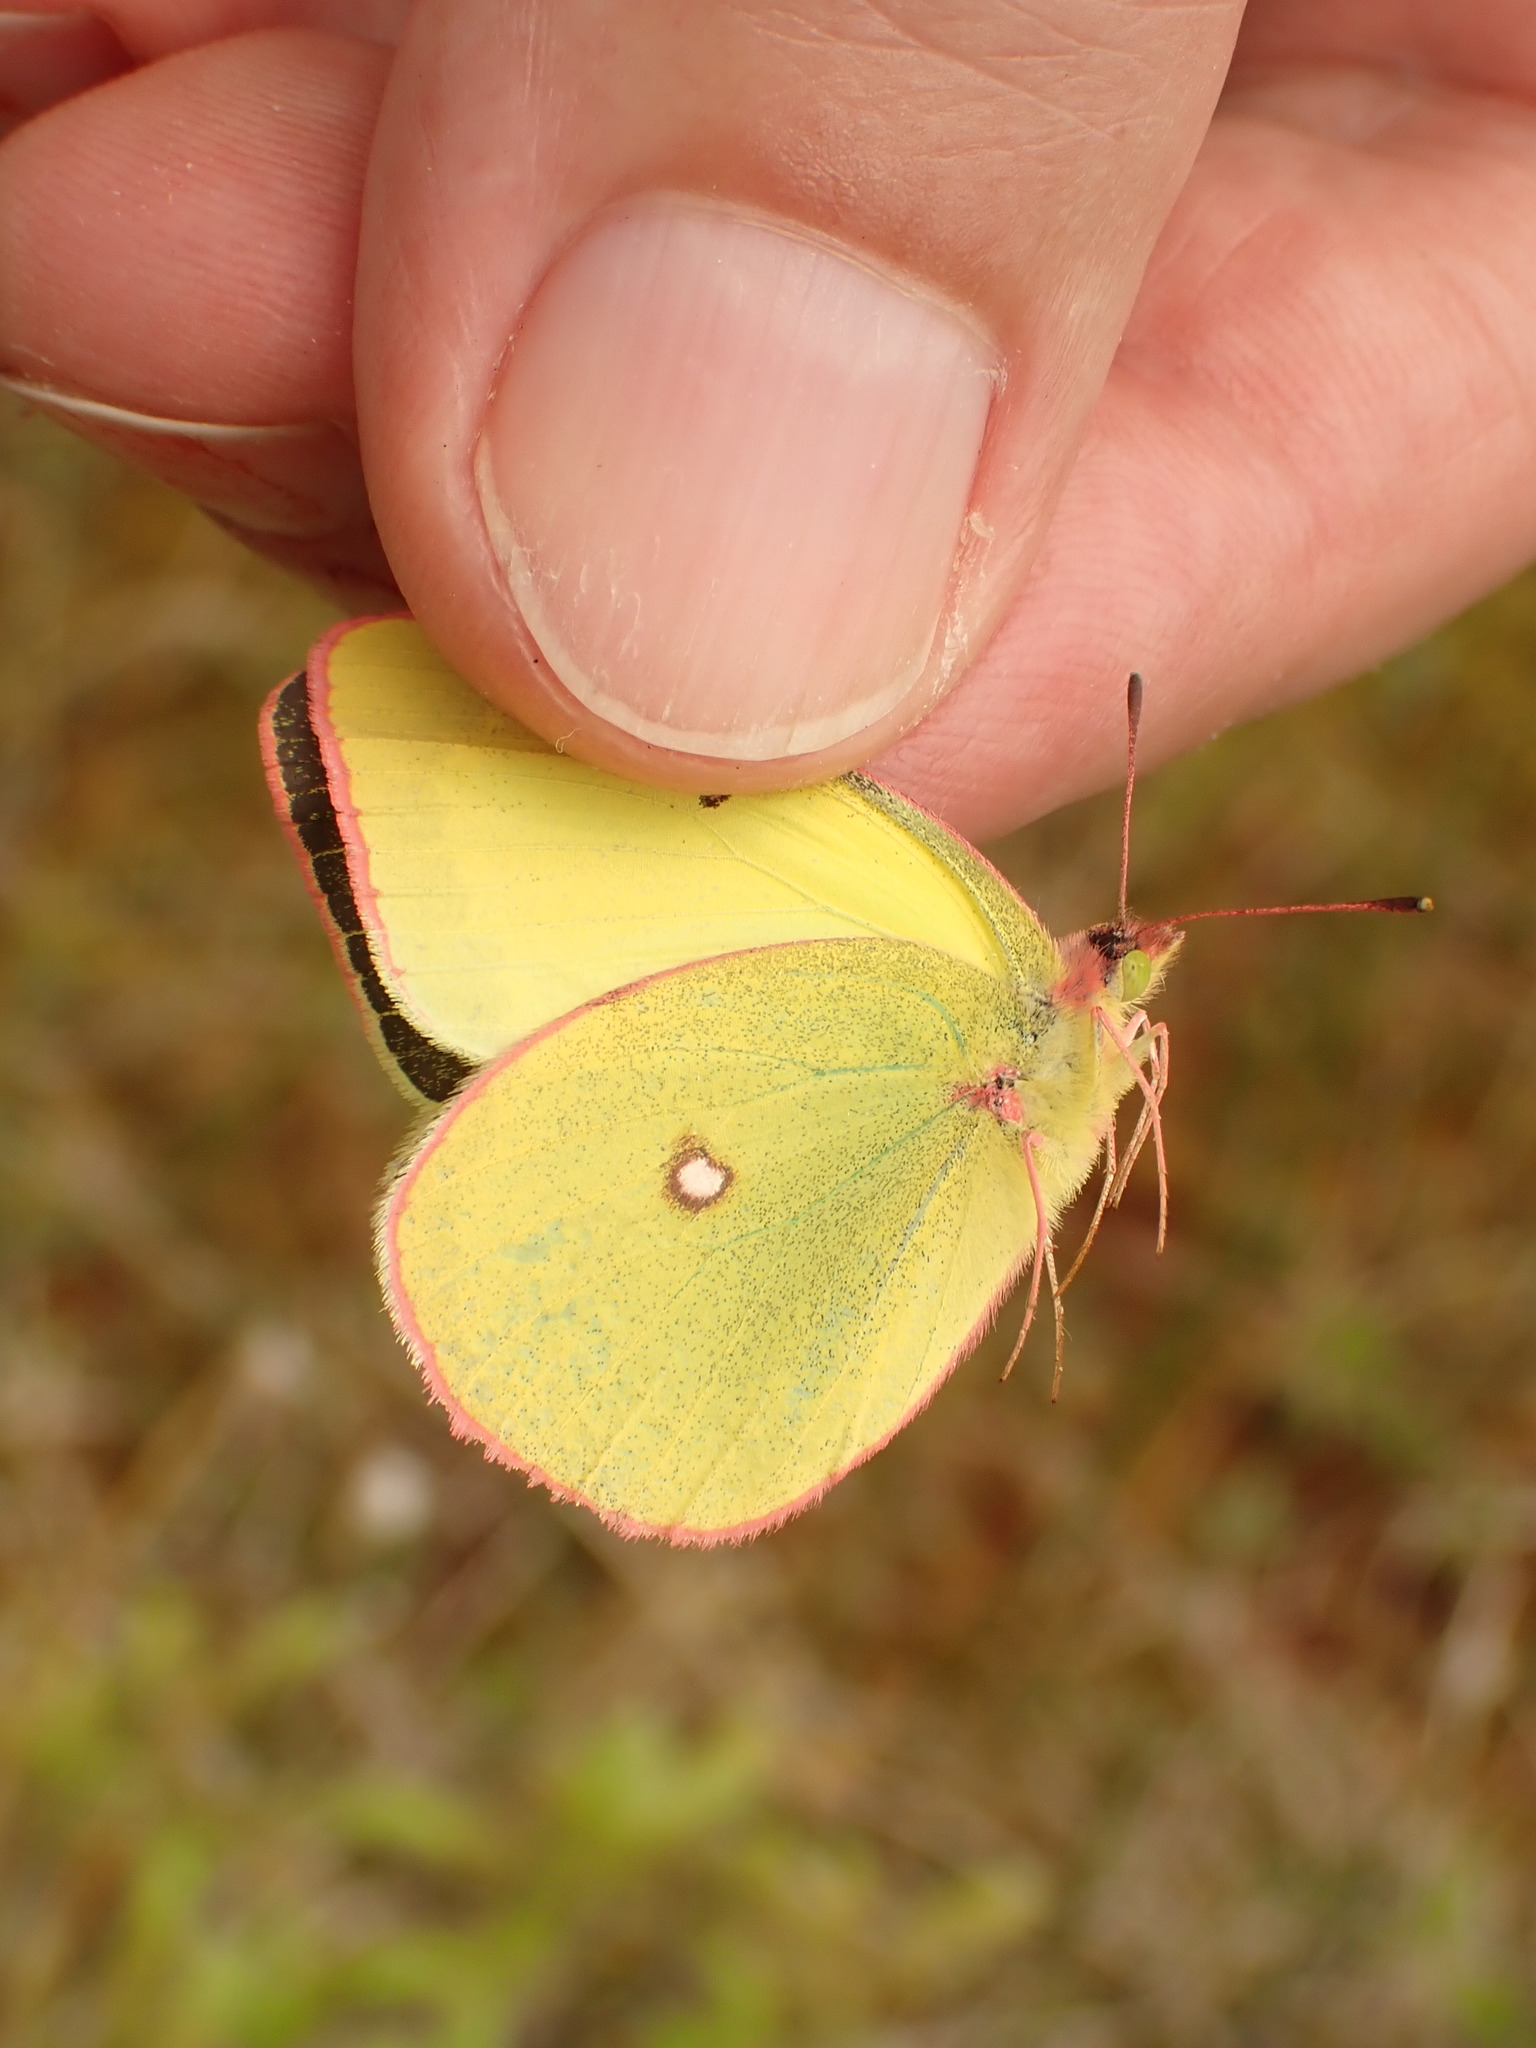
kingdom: Animalia
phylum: Arthropoda
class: Insecta
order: Lepidoptera
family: Pieridae
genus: Colias
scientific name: Colias interior
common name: Pink-edged sulphur
